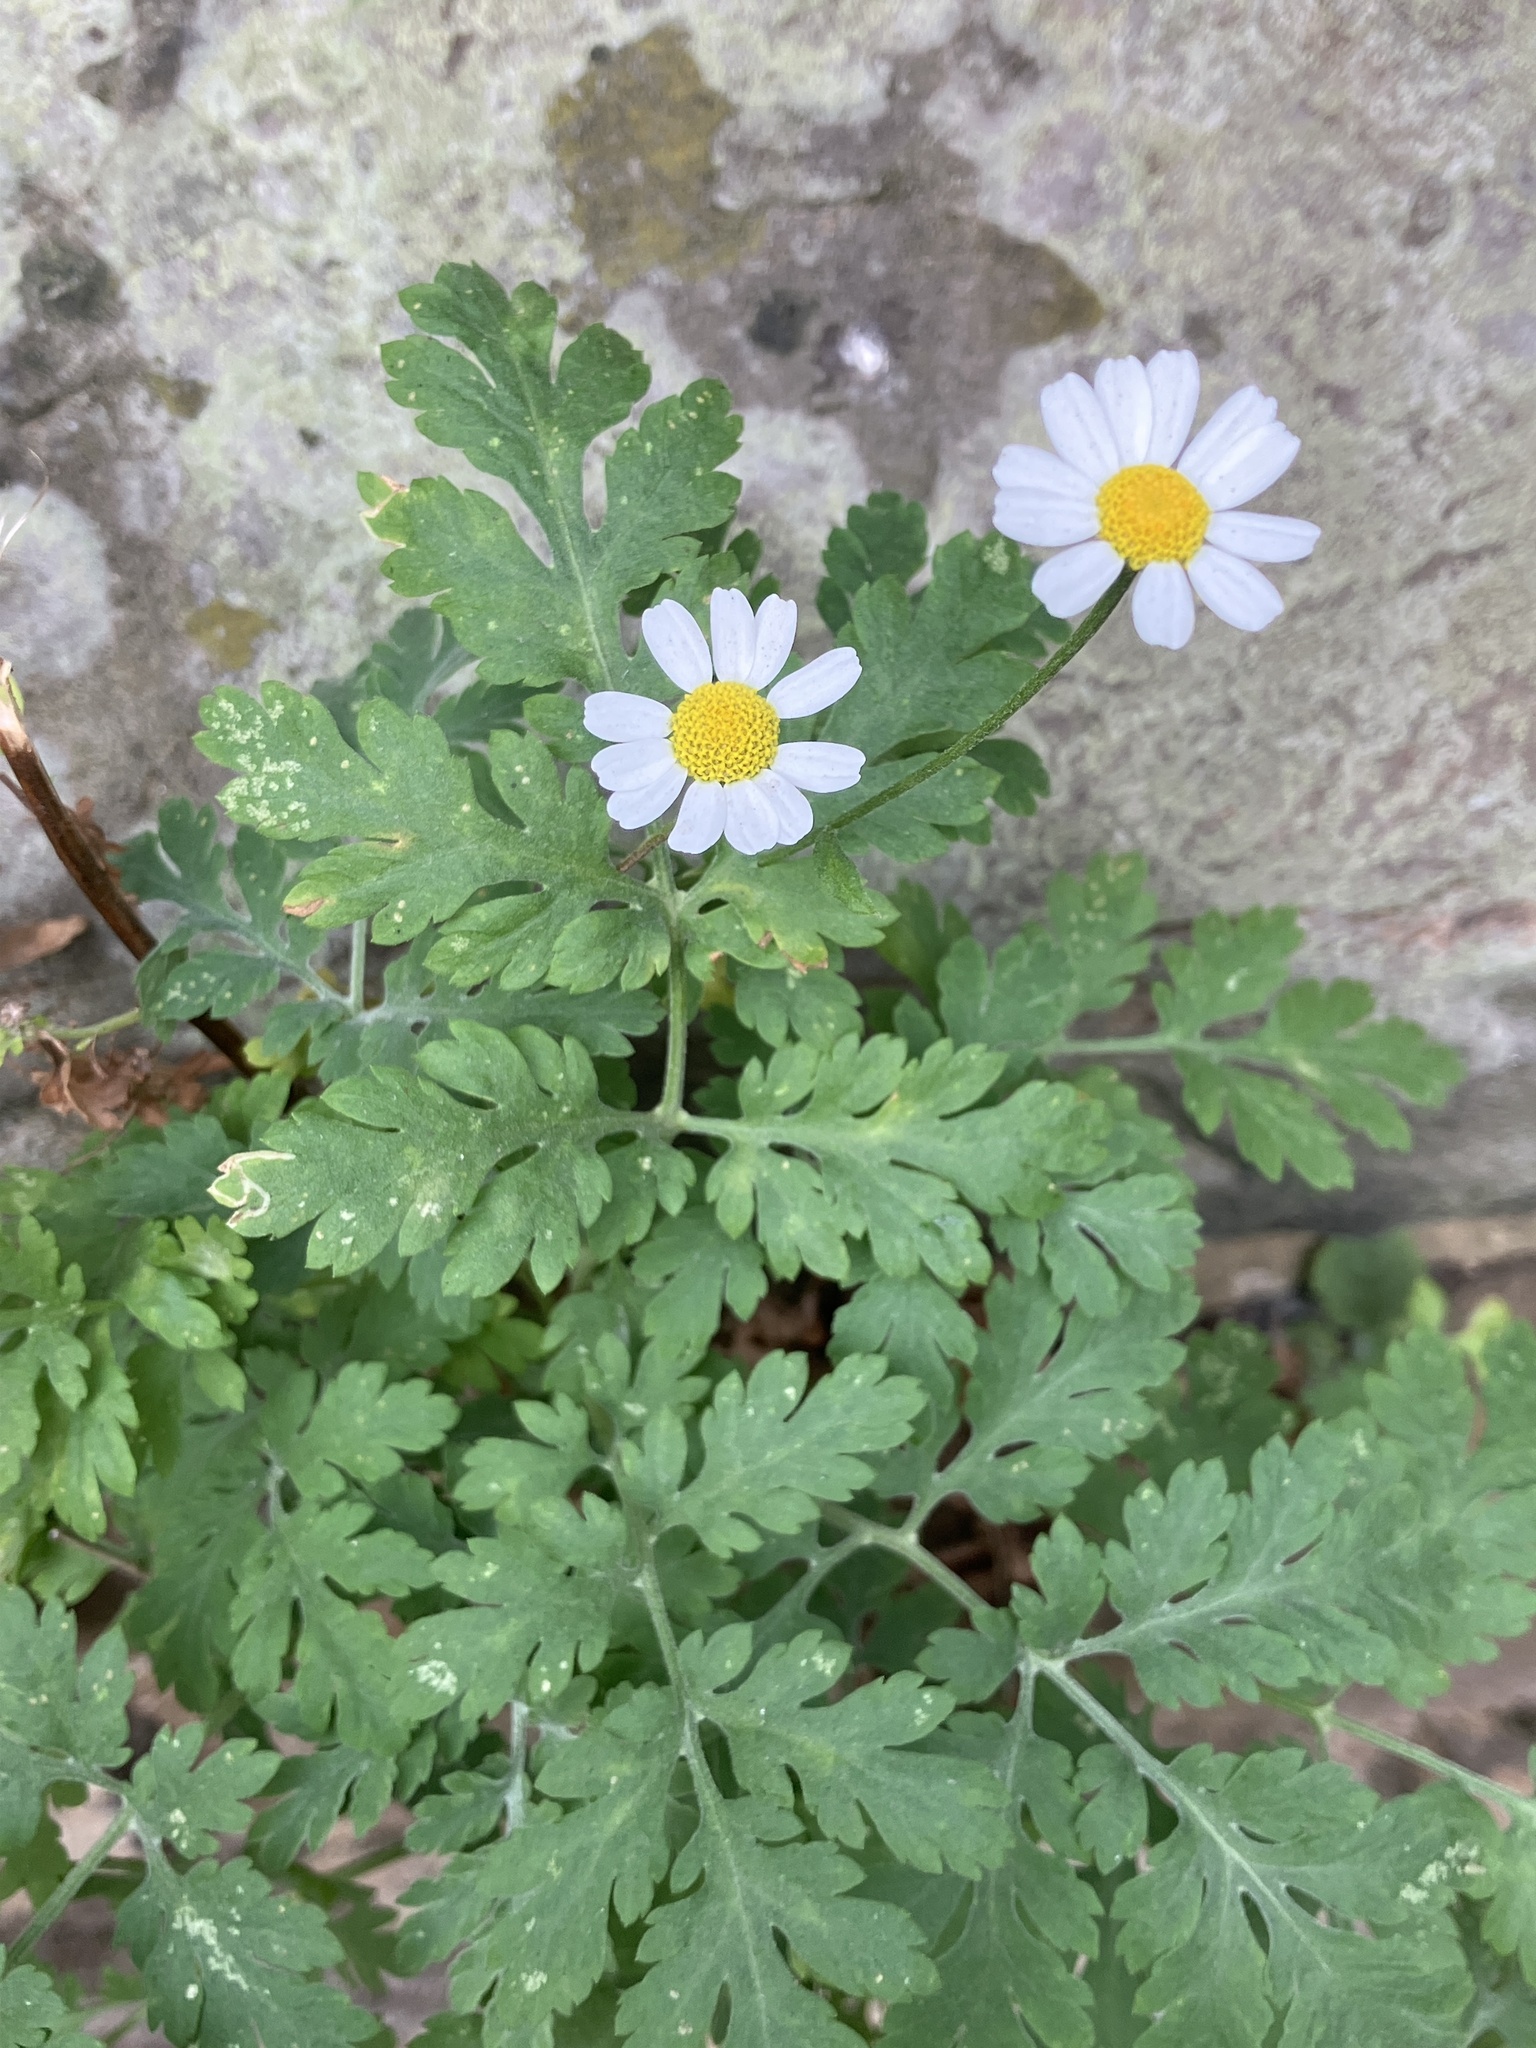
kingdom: Plantae
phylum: Tracheophyta
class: Magnoliopsida
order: Asterales
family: Asteraceae
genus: Tanacetum
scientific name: Tanacetum parthenium
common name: Feverfew
